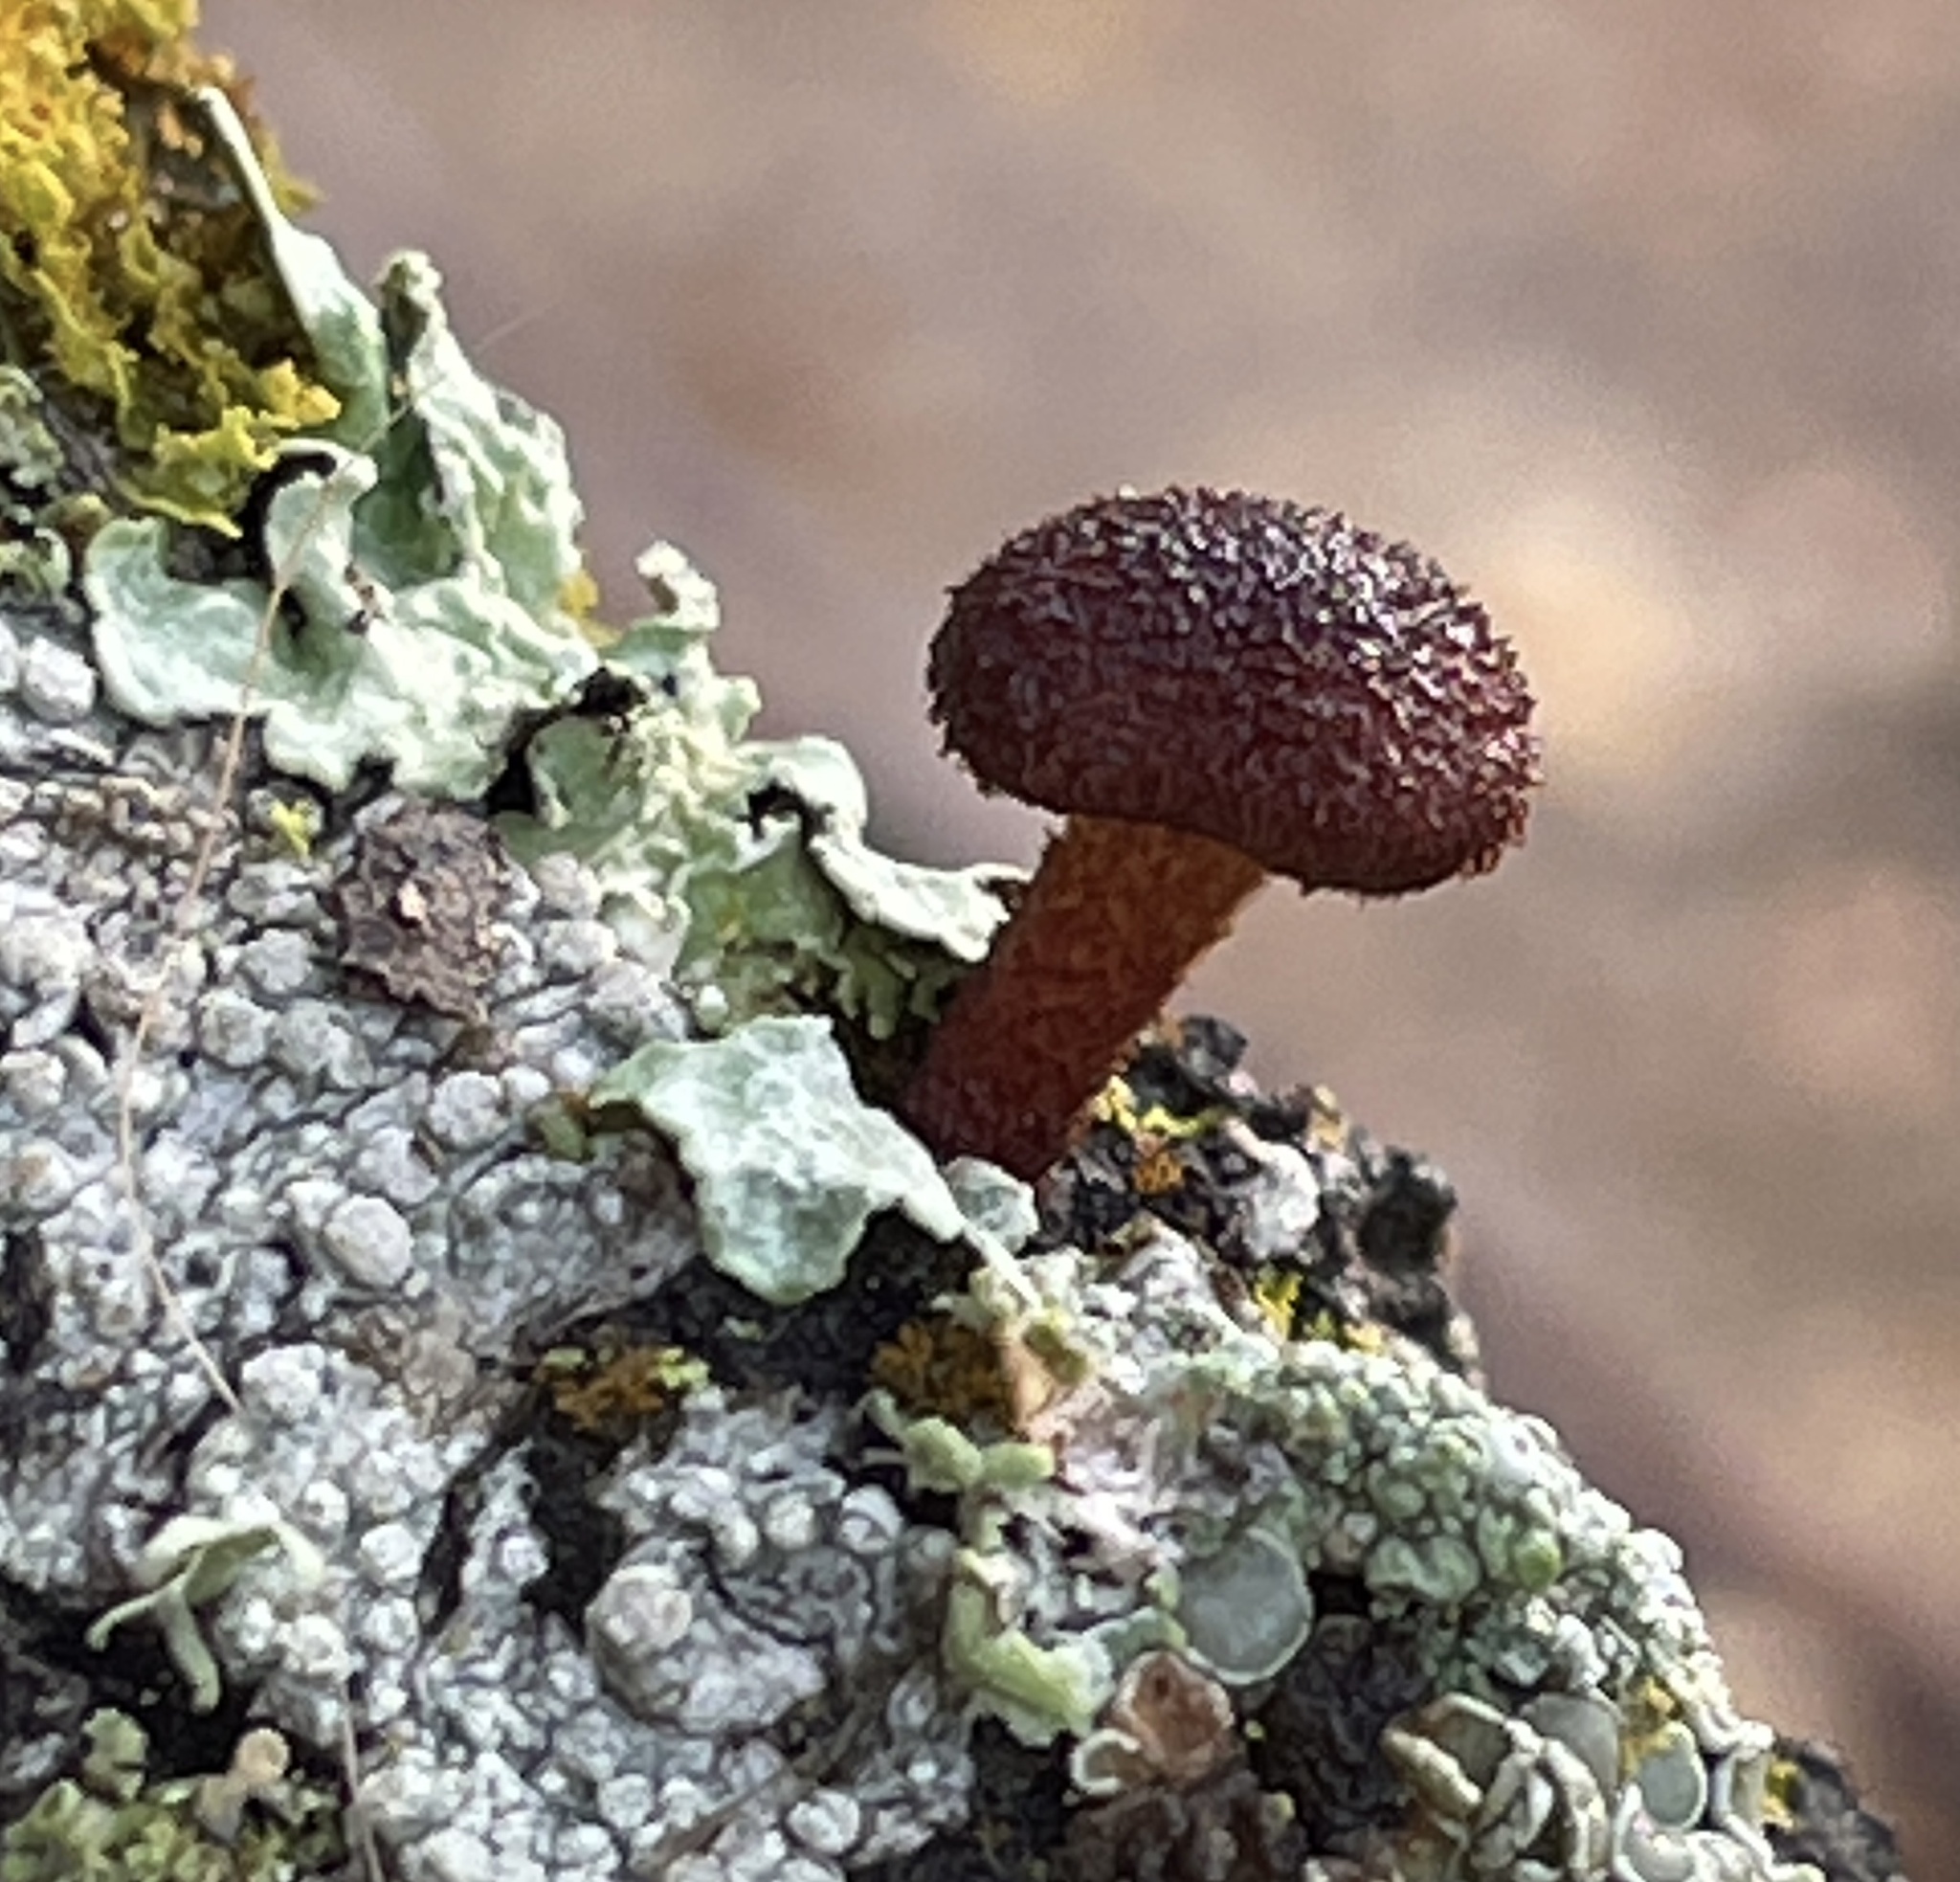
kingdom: Fungi
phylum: Basidiomycota
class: Agaricomycetes
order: Agaricales
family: Tubariaceae
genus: Phaeomarasmius
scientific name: Phaeomarasmius erinaceus
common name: Hedgehog scalycap
